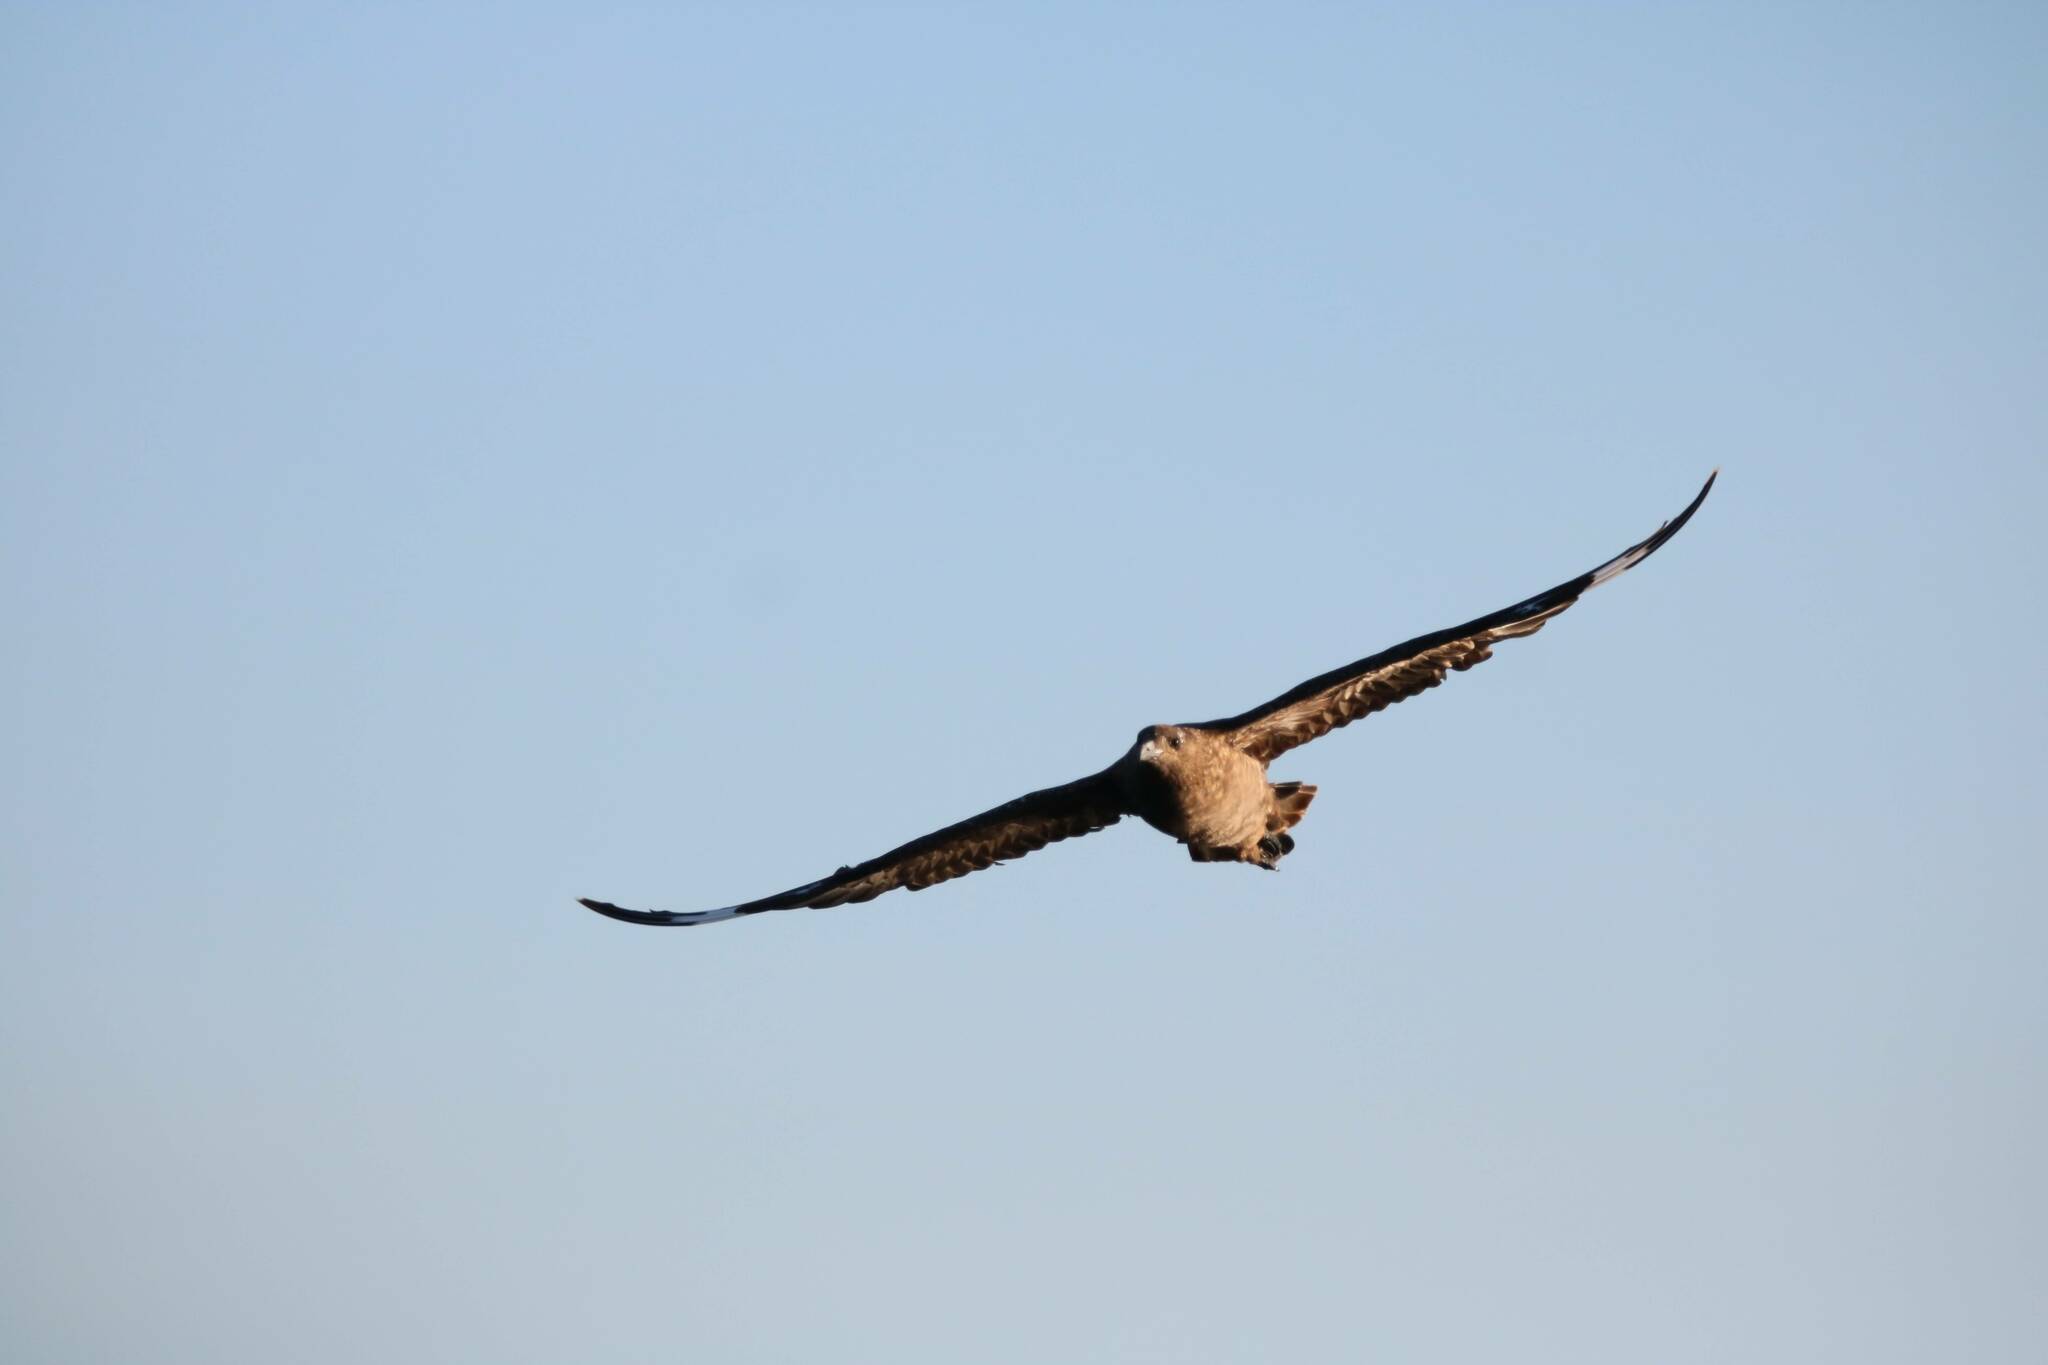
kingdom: Animalia
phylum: Chordata
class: Aves
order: Charadriiformes
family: Stercorariidae
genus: Stercorarius
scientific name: Stercorarius skua
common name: Great skua
